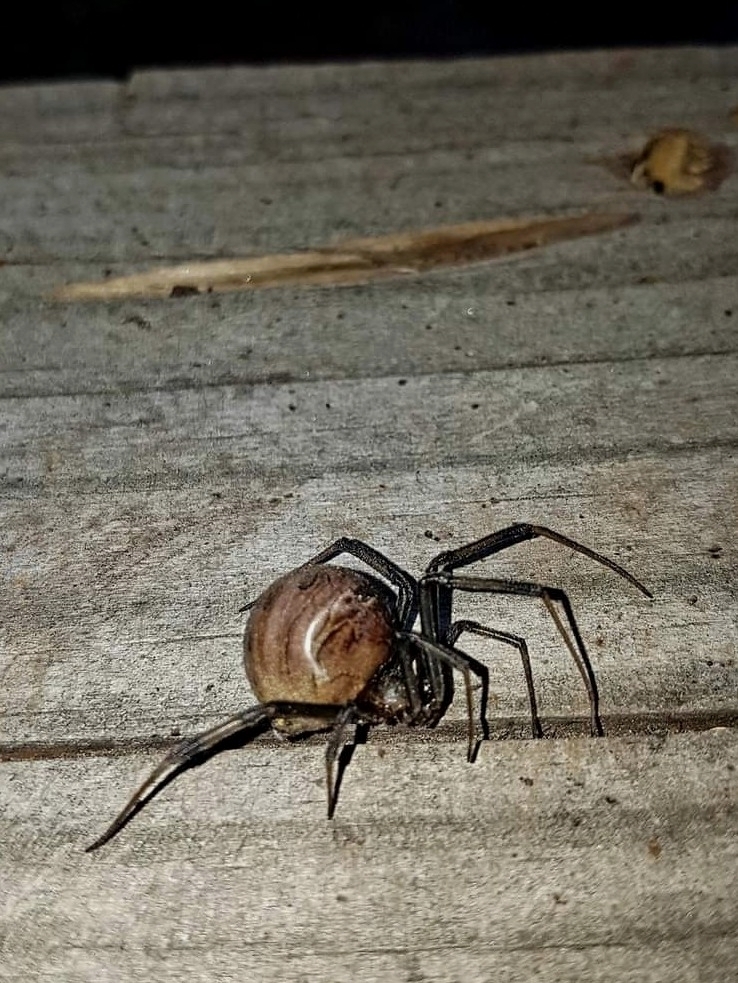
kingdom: Animalia
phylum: Arthropoda
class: Arachnida
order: Araneae
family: Theridiidae
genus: Latrodectus
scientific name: Latrodectus geometricus
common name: Brown widow spider
